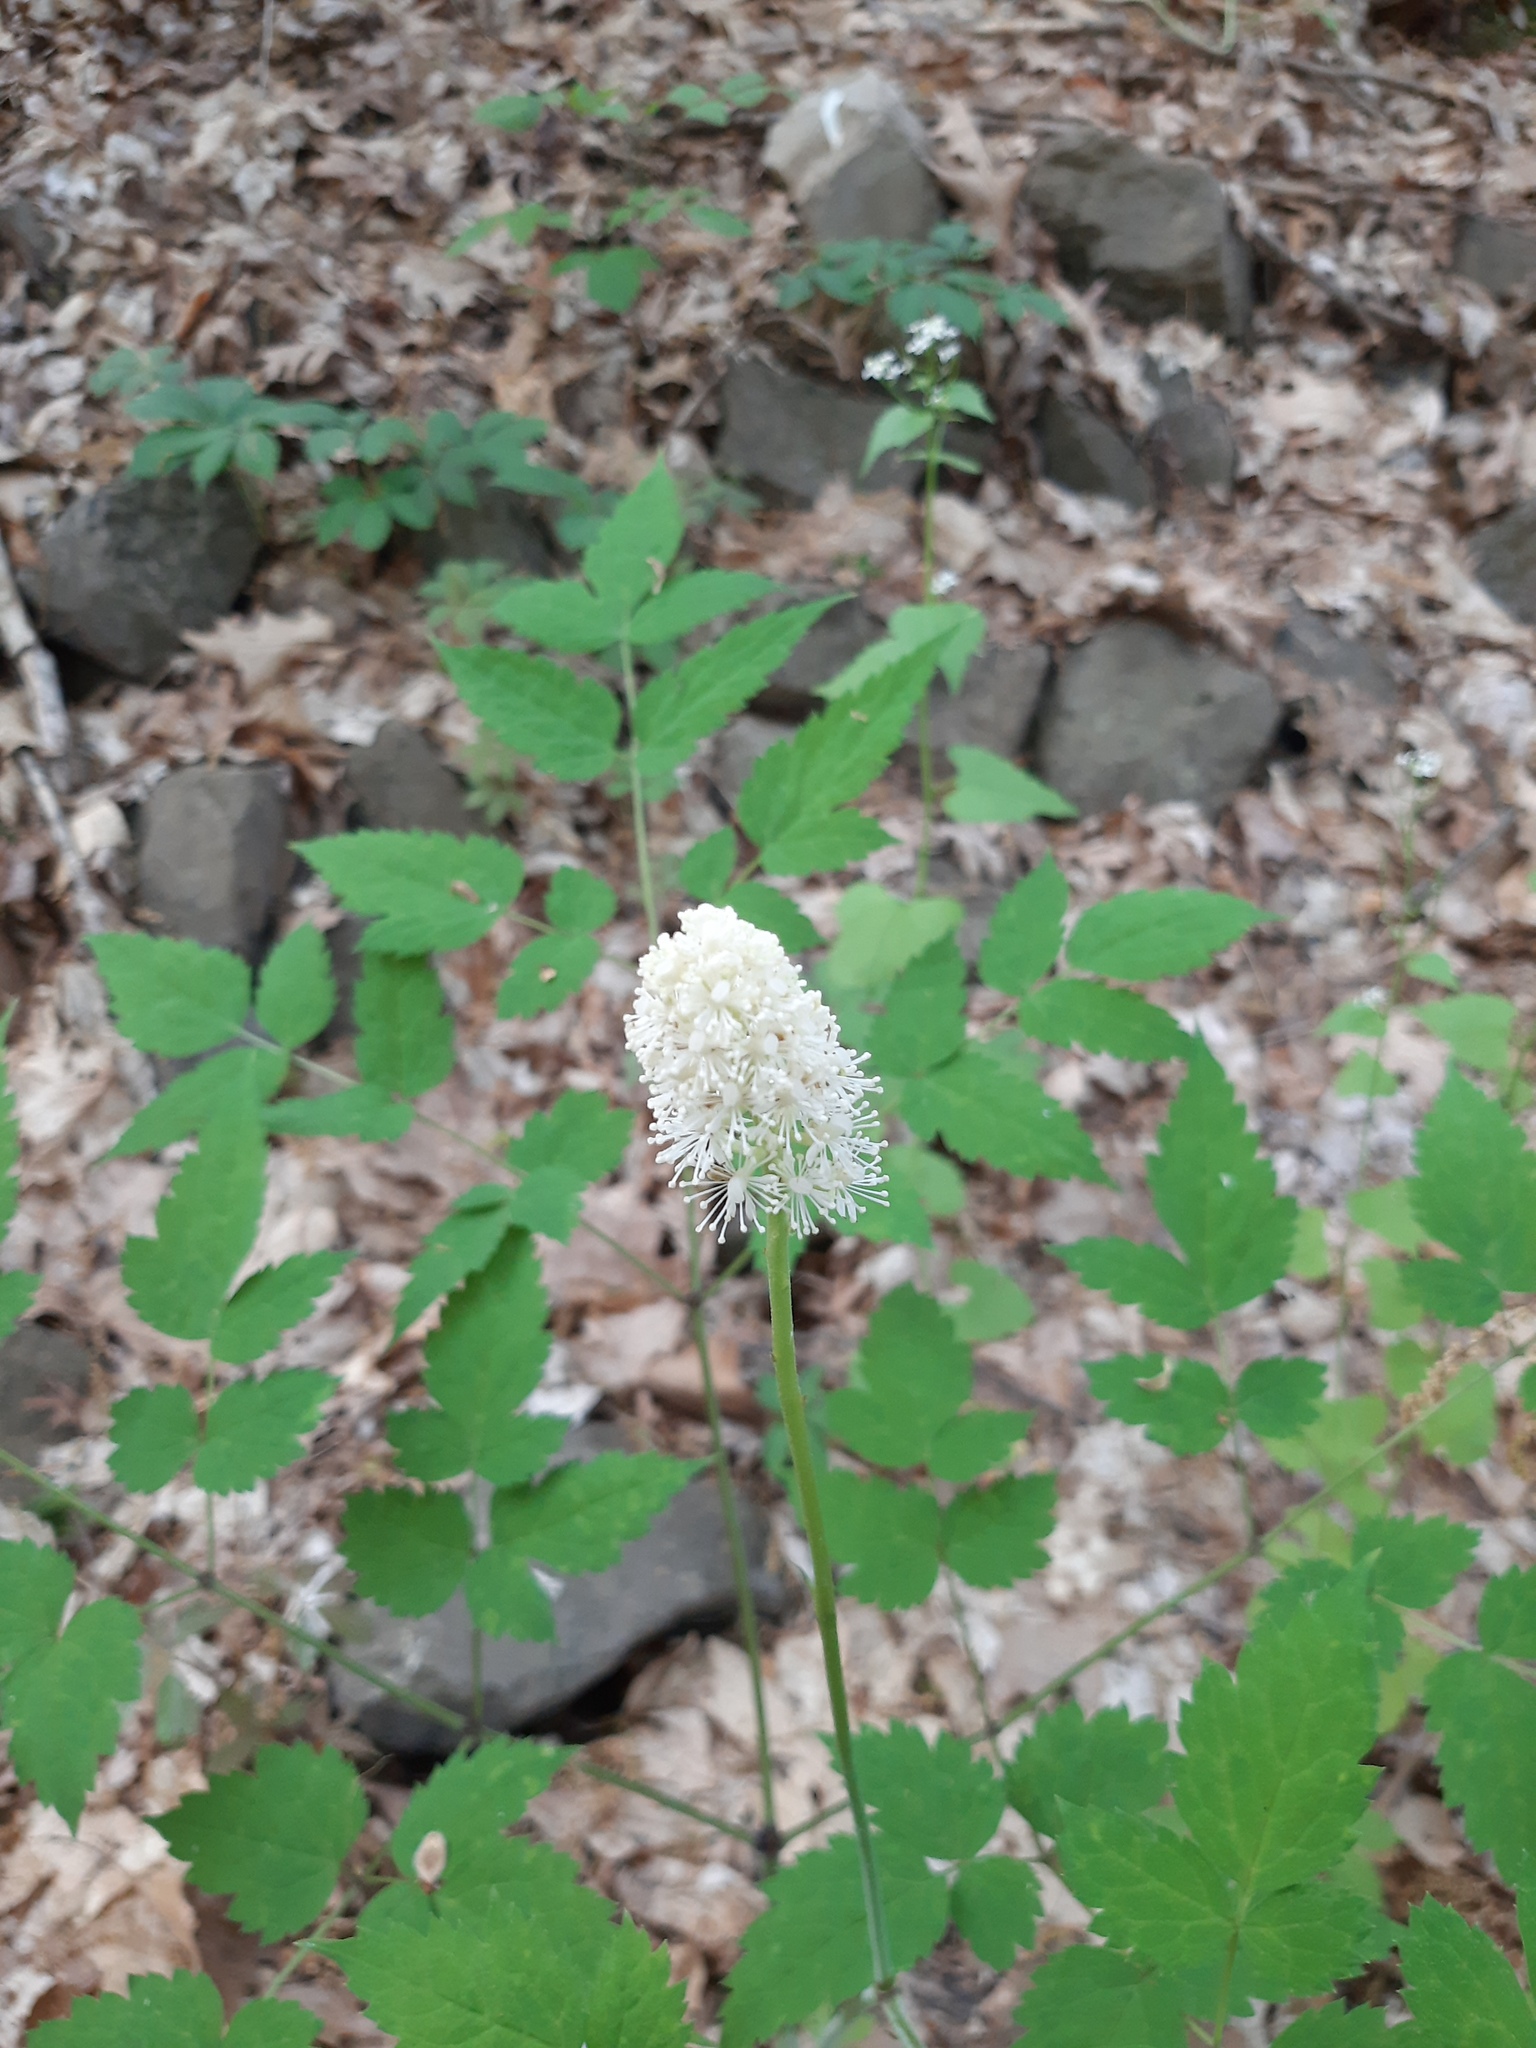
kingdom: Plantae
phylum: Tracheophyta
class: Magnoliopsida
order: Ranunculales
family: Ranunculaceae
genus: Actaea
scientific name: Actaea pachypoda
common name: Doll's-eyes
